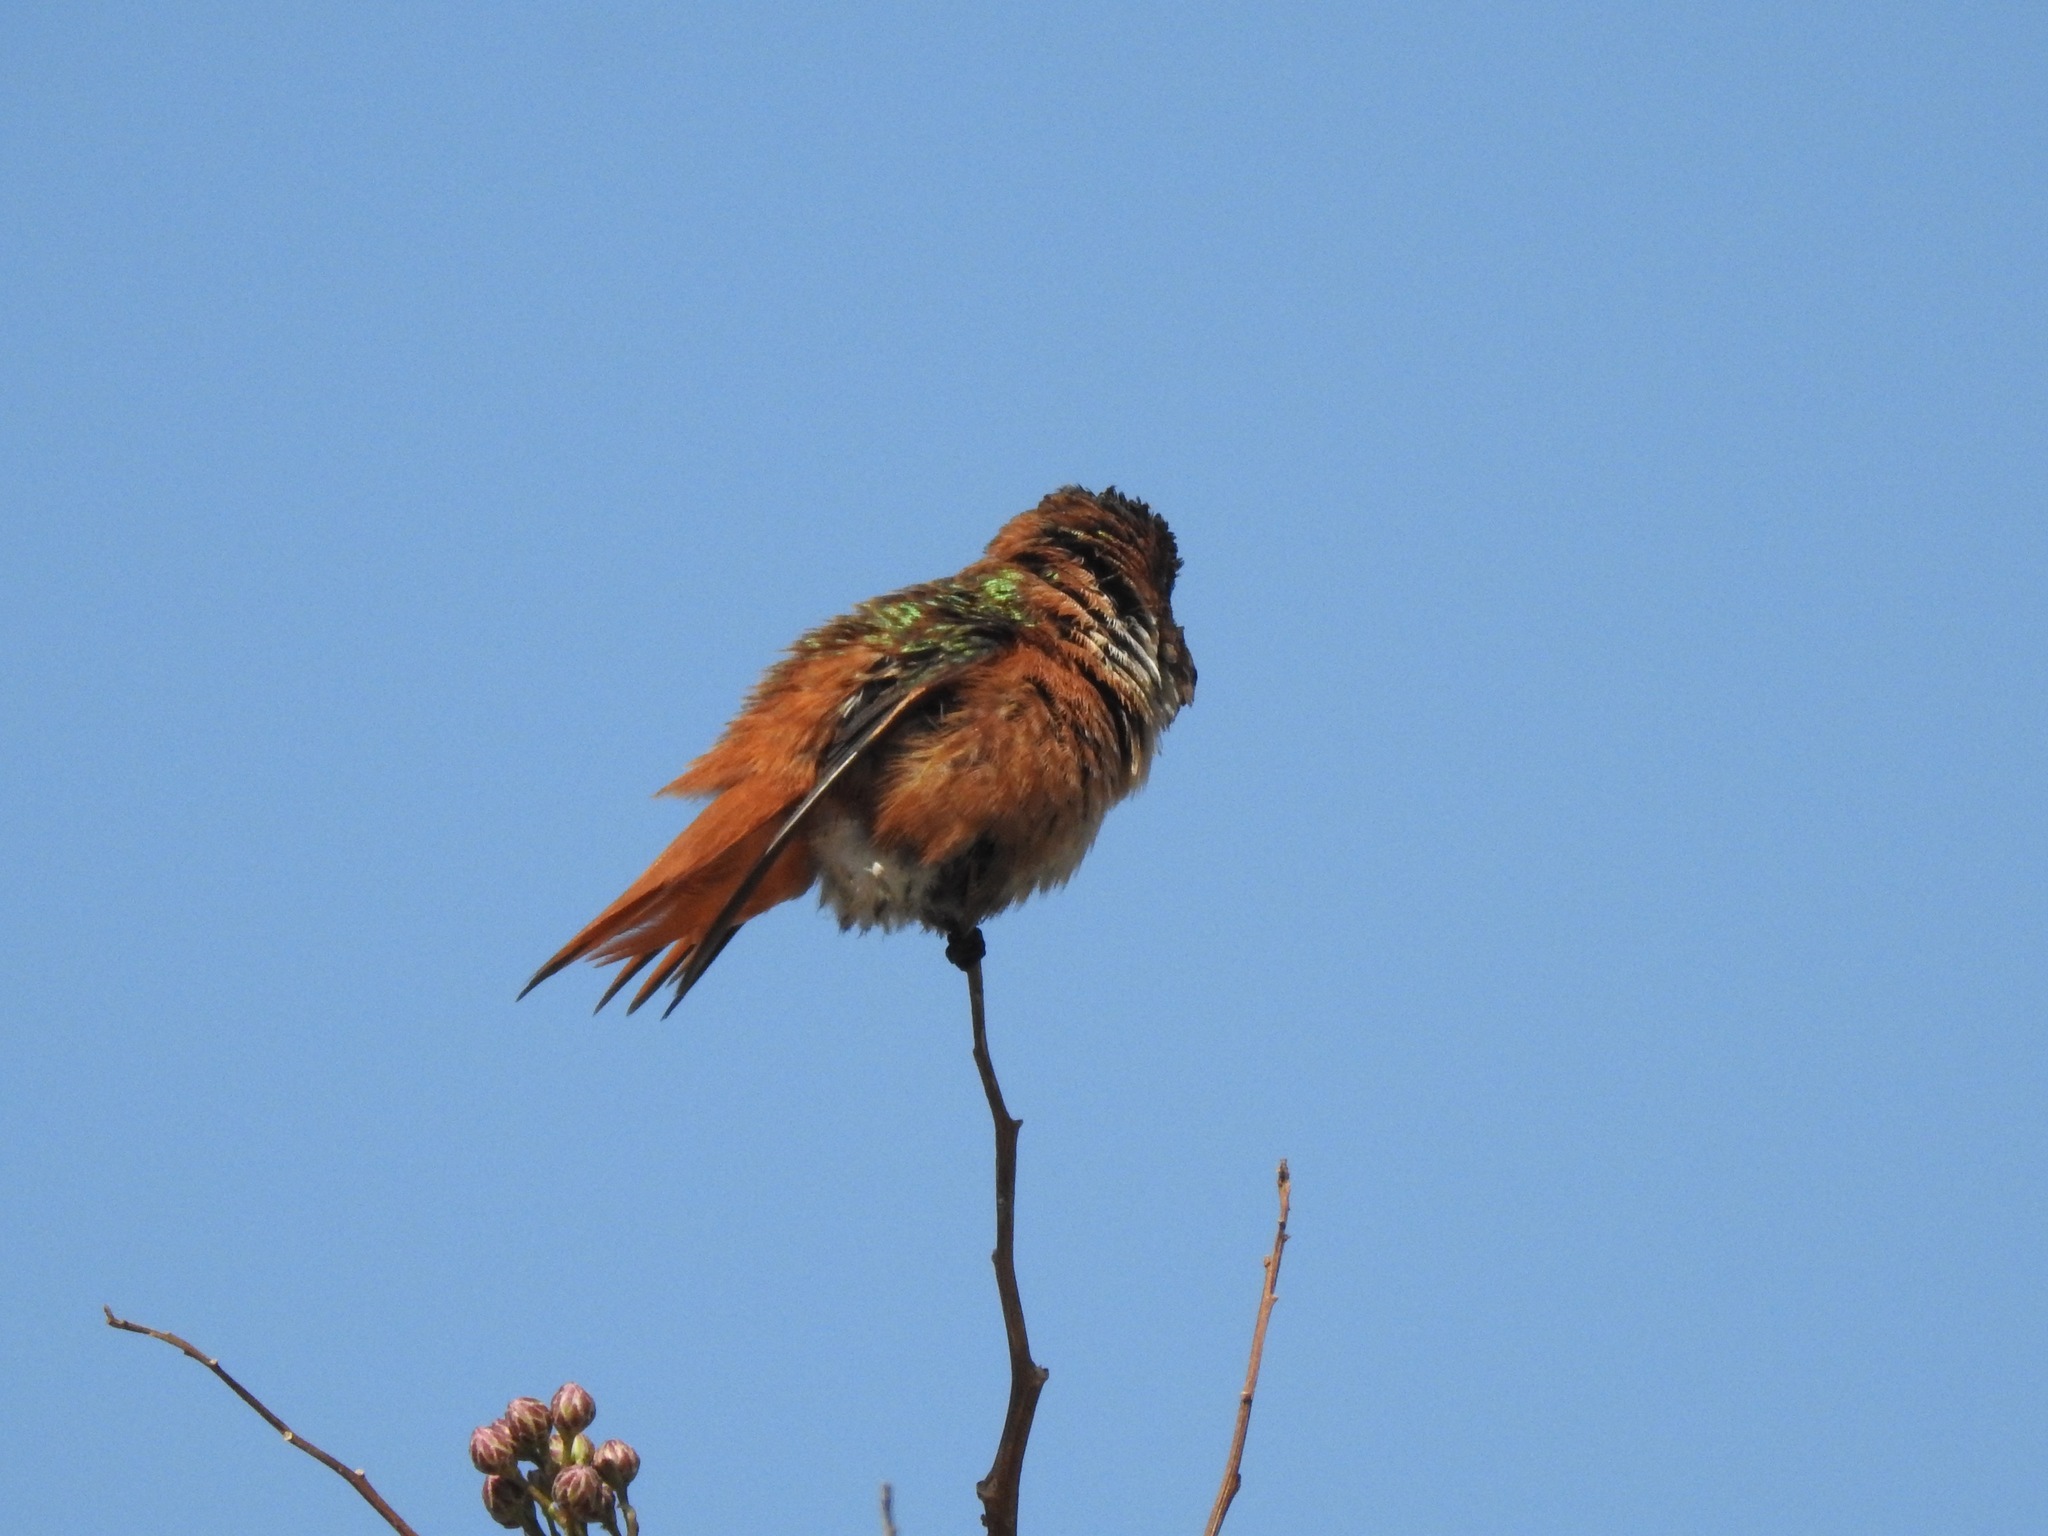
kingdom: Animalia
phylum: Chordata
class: Aves
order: Apodiformes
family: Trochilidae
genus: Selasphorus
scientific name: Selasphorus sasin
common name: Allen's hummingbird
